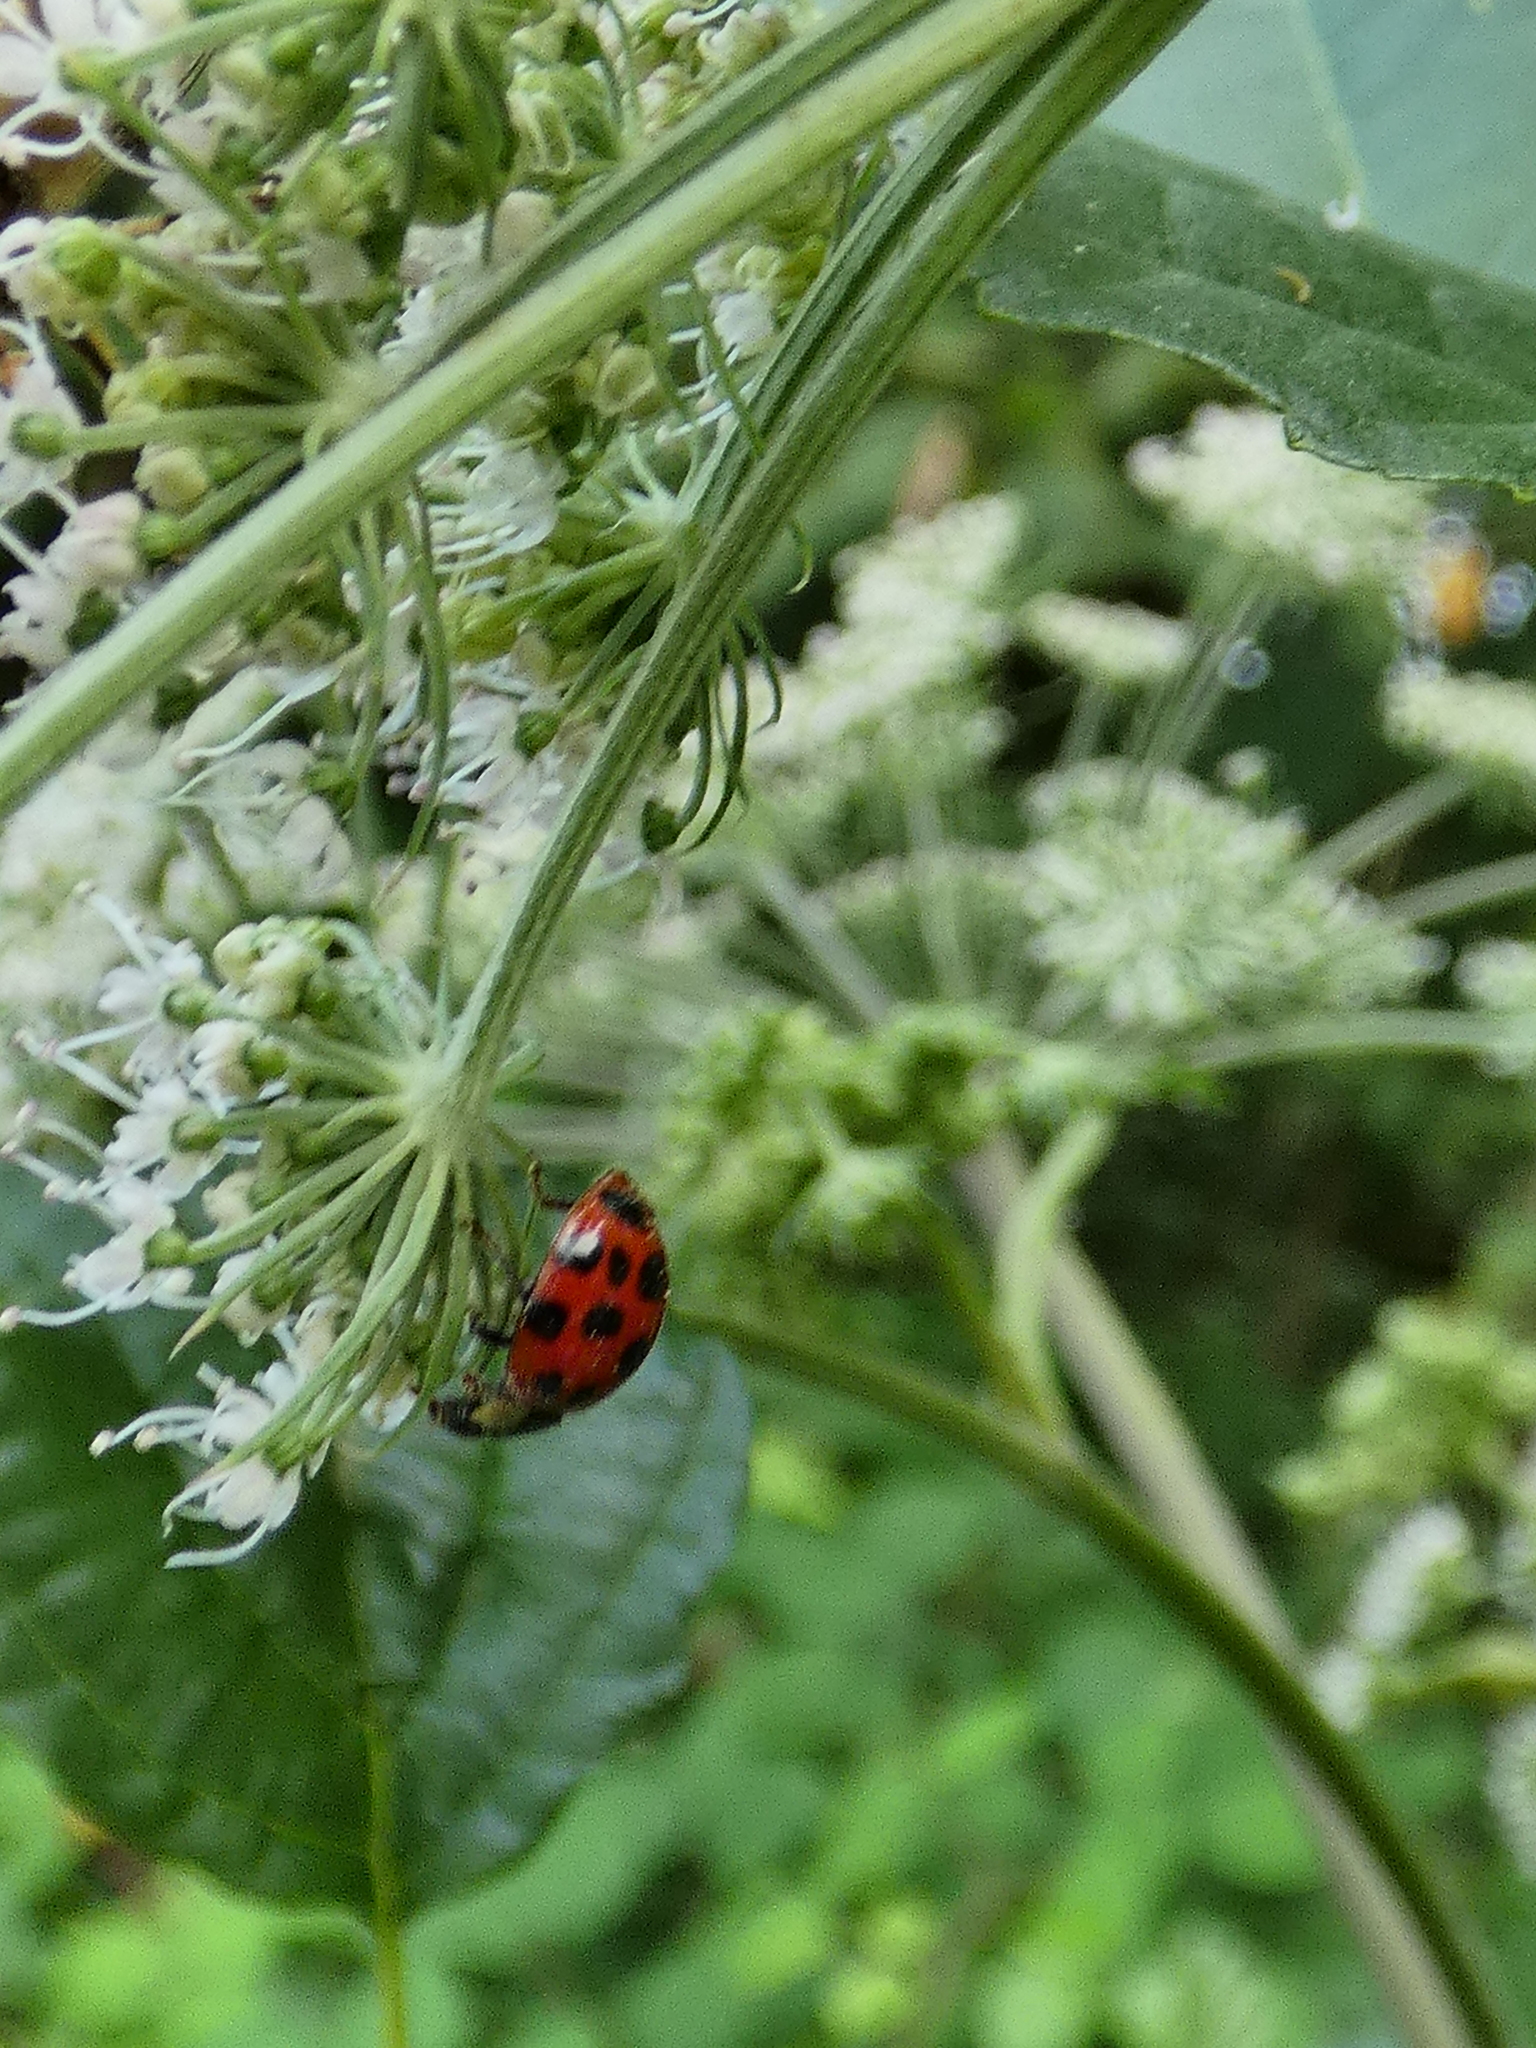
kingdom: Animalia
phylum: Arthropoda
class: Insecta
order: Coleoptera
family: Coccinellidae
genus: Harmonia
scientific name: Harmonia axyridis
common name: Harlequin ladybird
